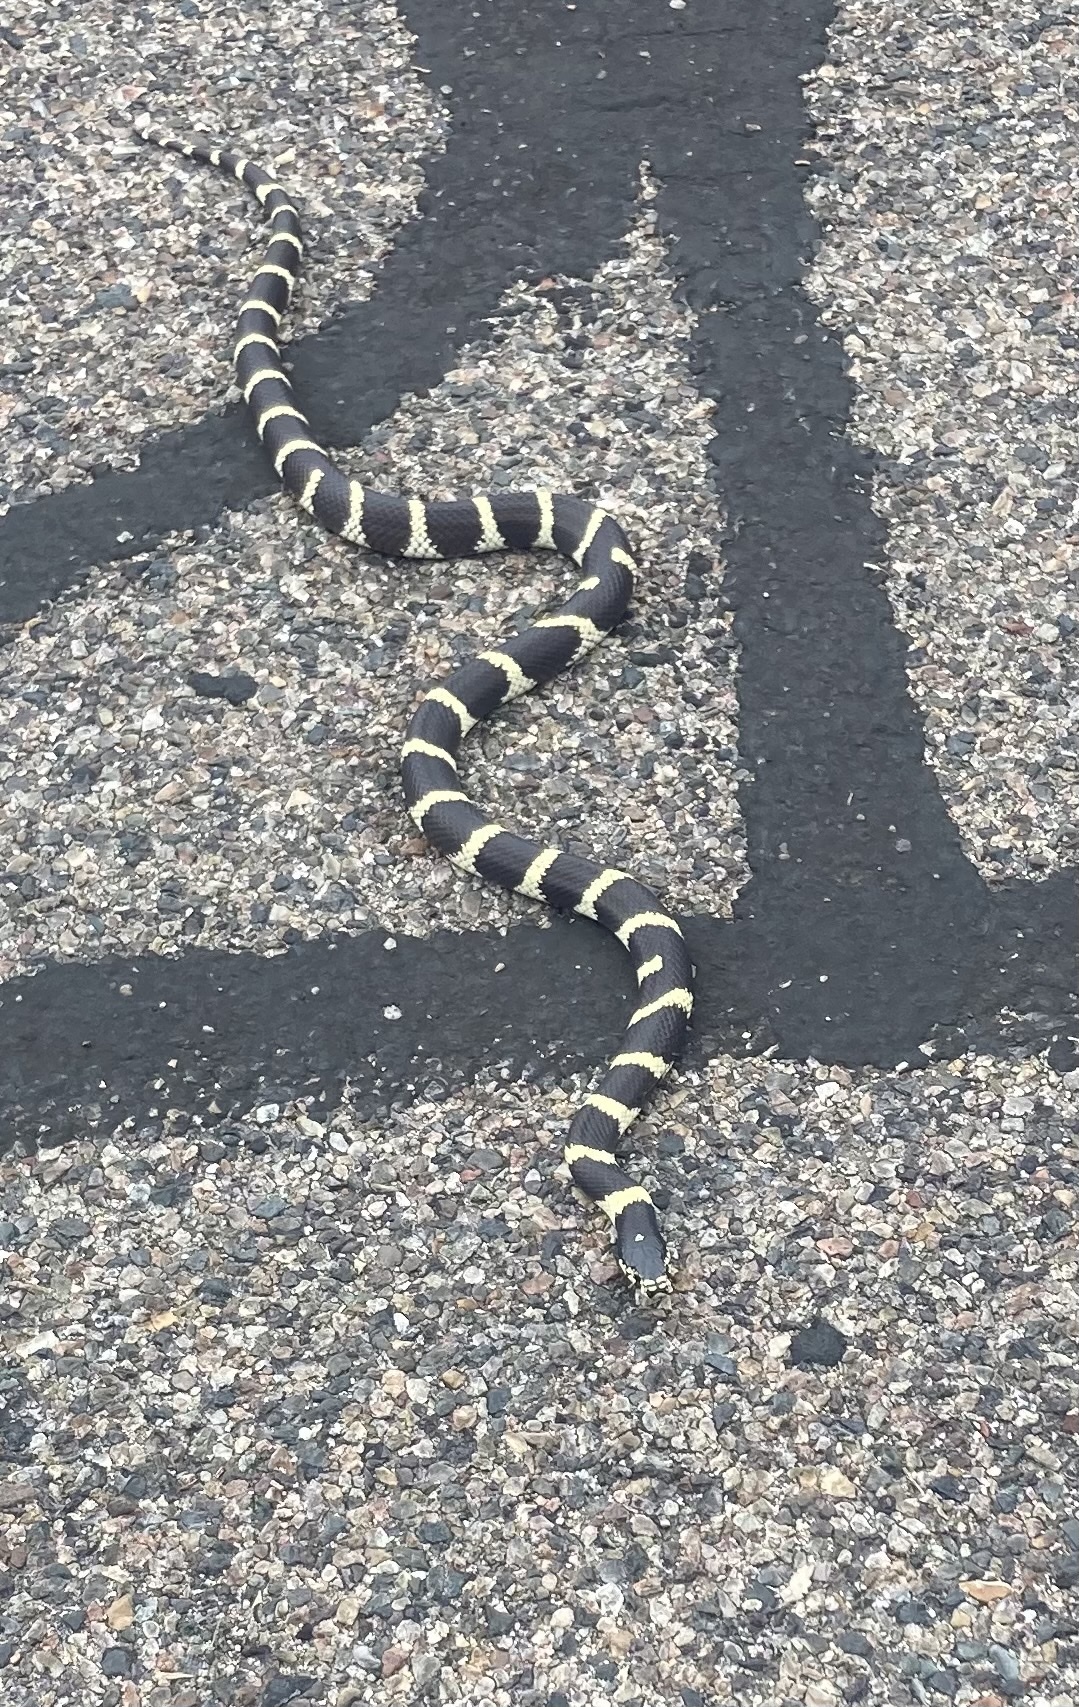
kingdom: Animalia
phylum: Chordata
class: Squamata
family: Colubridae
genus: Lampropeltis
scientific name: Lampropeltis californiae
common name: California kingsnake
